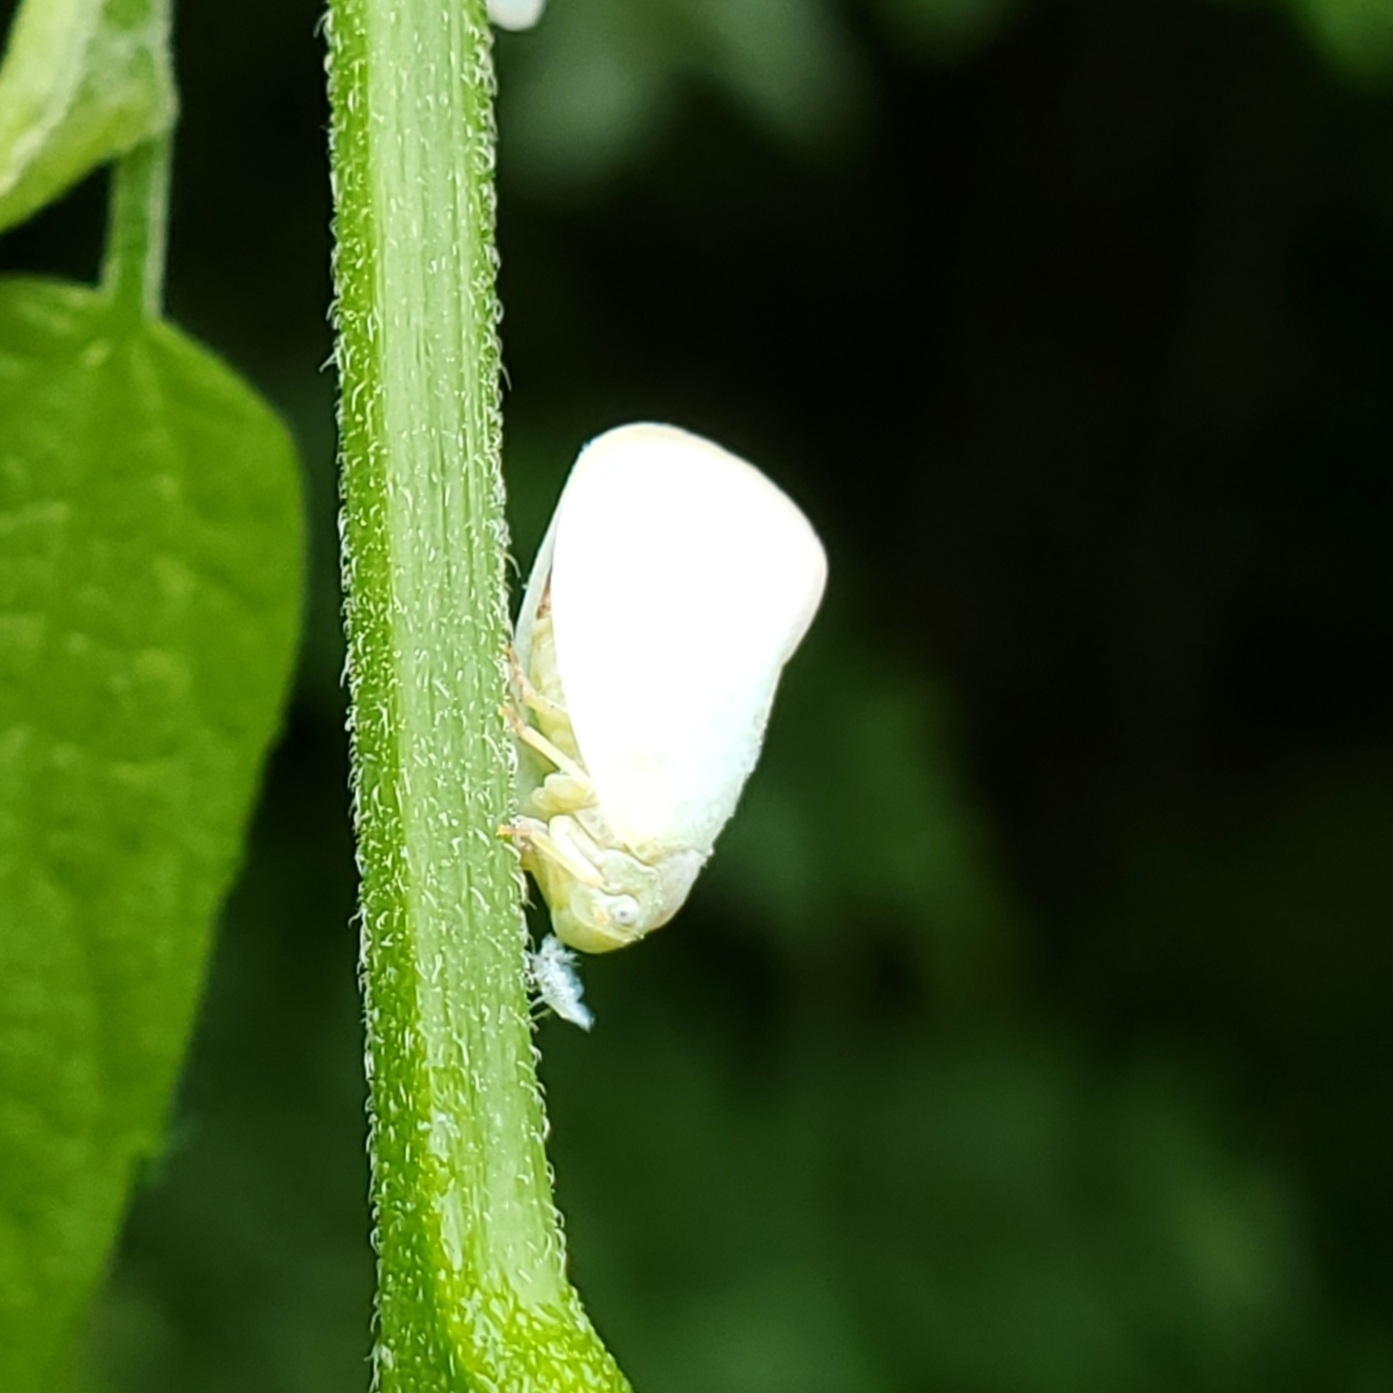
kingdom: Animalia
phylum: Arthropoda
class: Insecta
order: Hemiptera
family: Flatidae
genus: Ormenoides
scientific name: Ormenoides venusta
